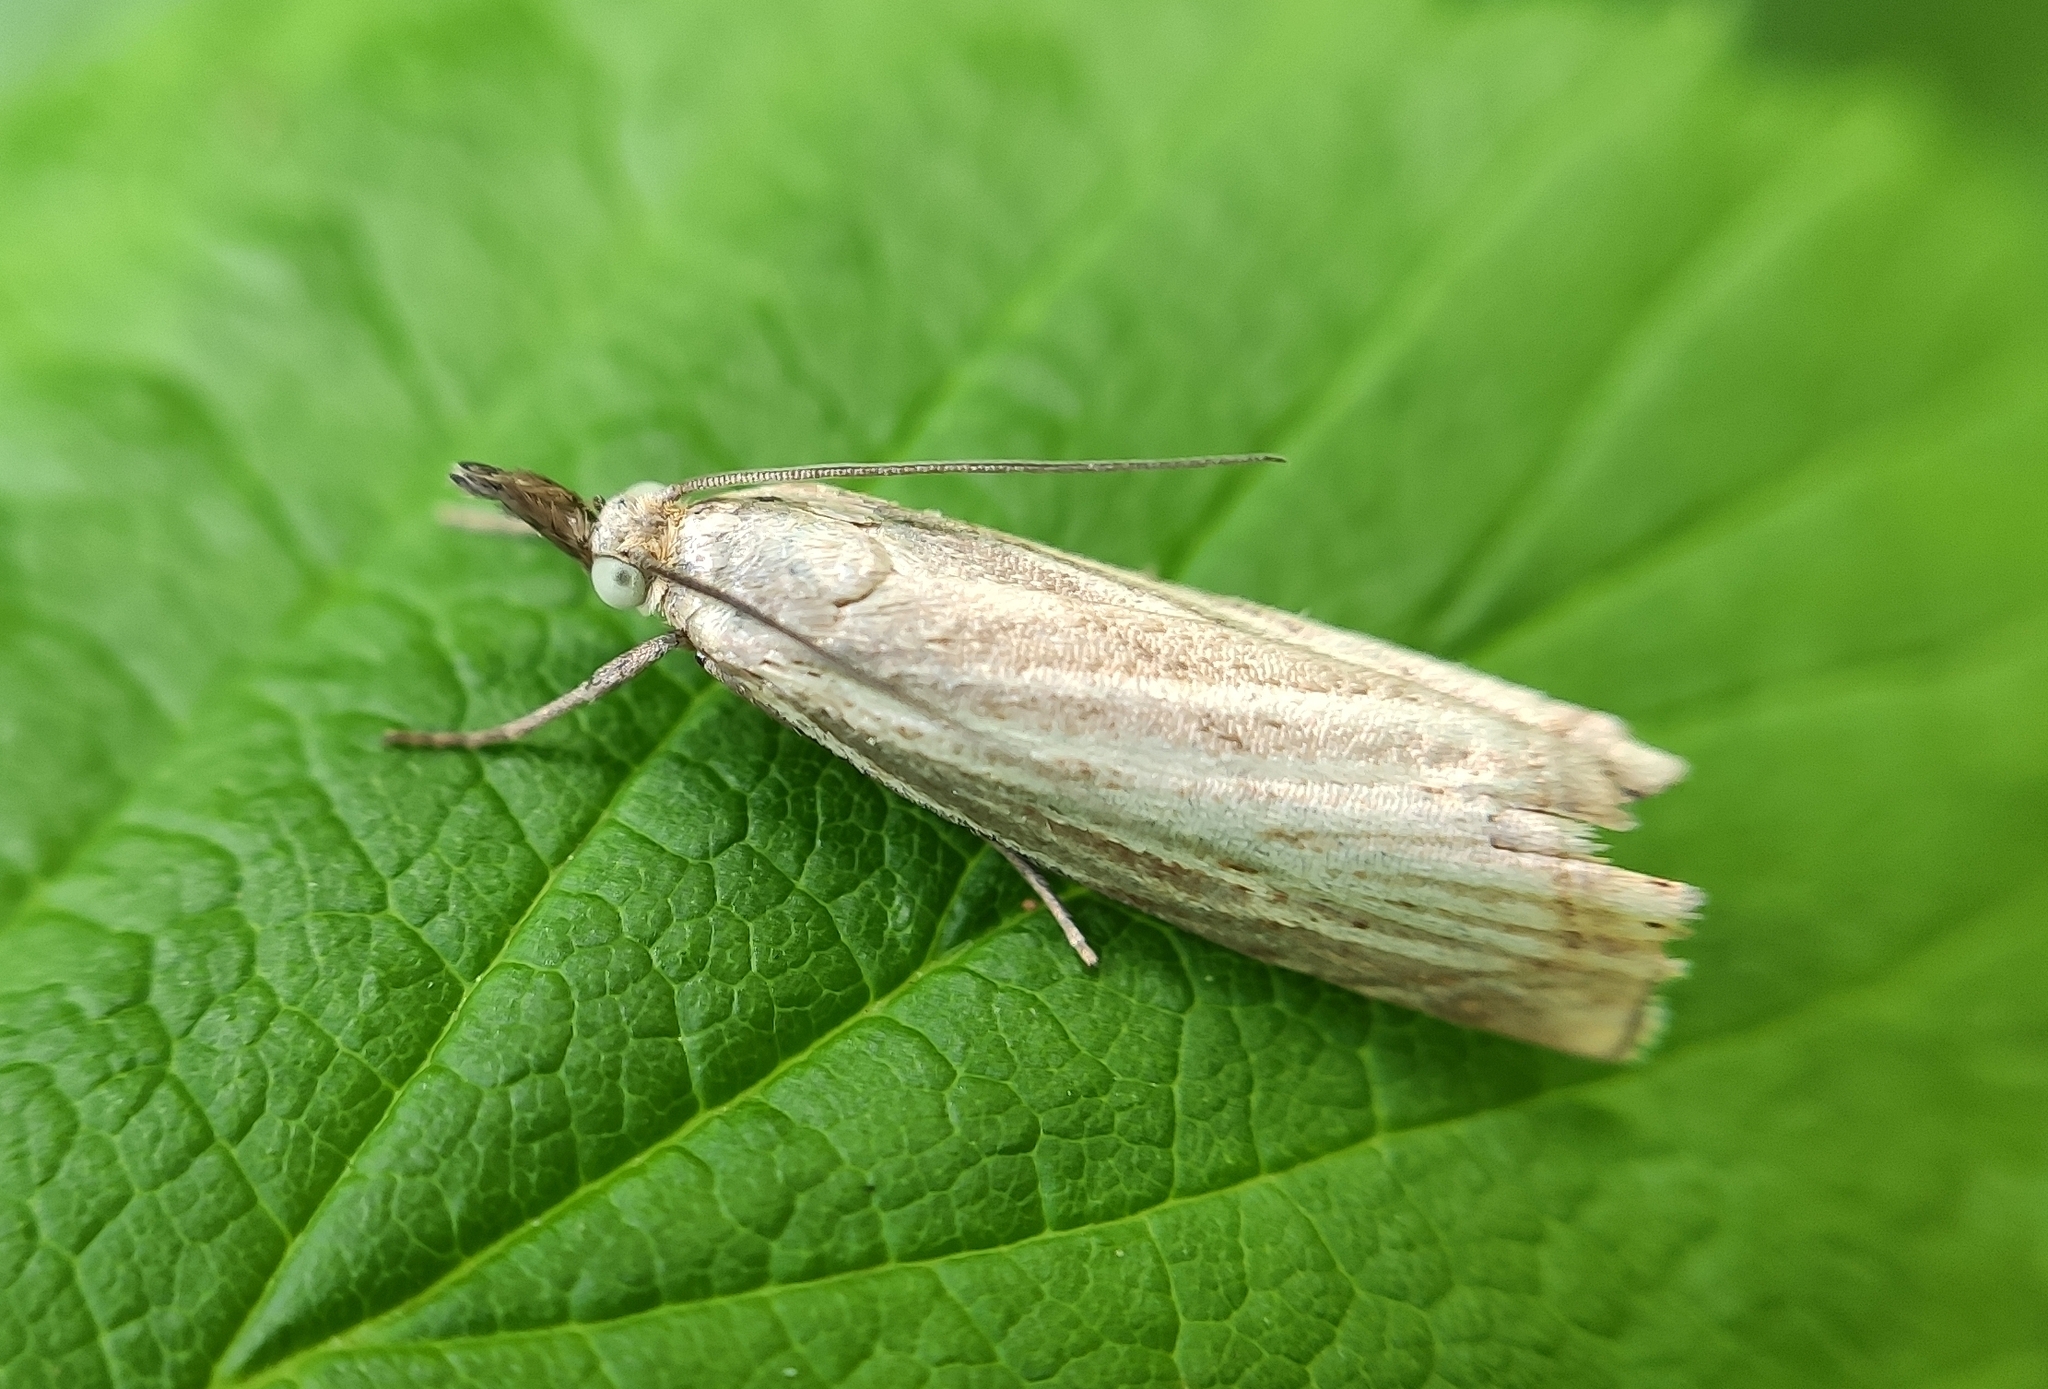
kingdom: Animalia
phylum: Arthropoda
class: Insecta
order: Lepidoptera
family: Crambidae
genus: Chrysoteuchia
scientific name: Chrysoteuchia culmella
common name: Garden grass-veneer
